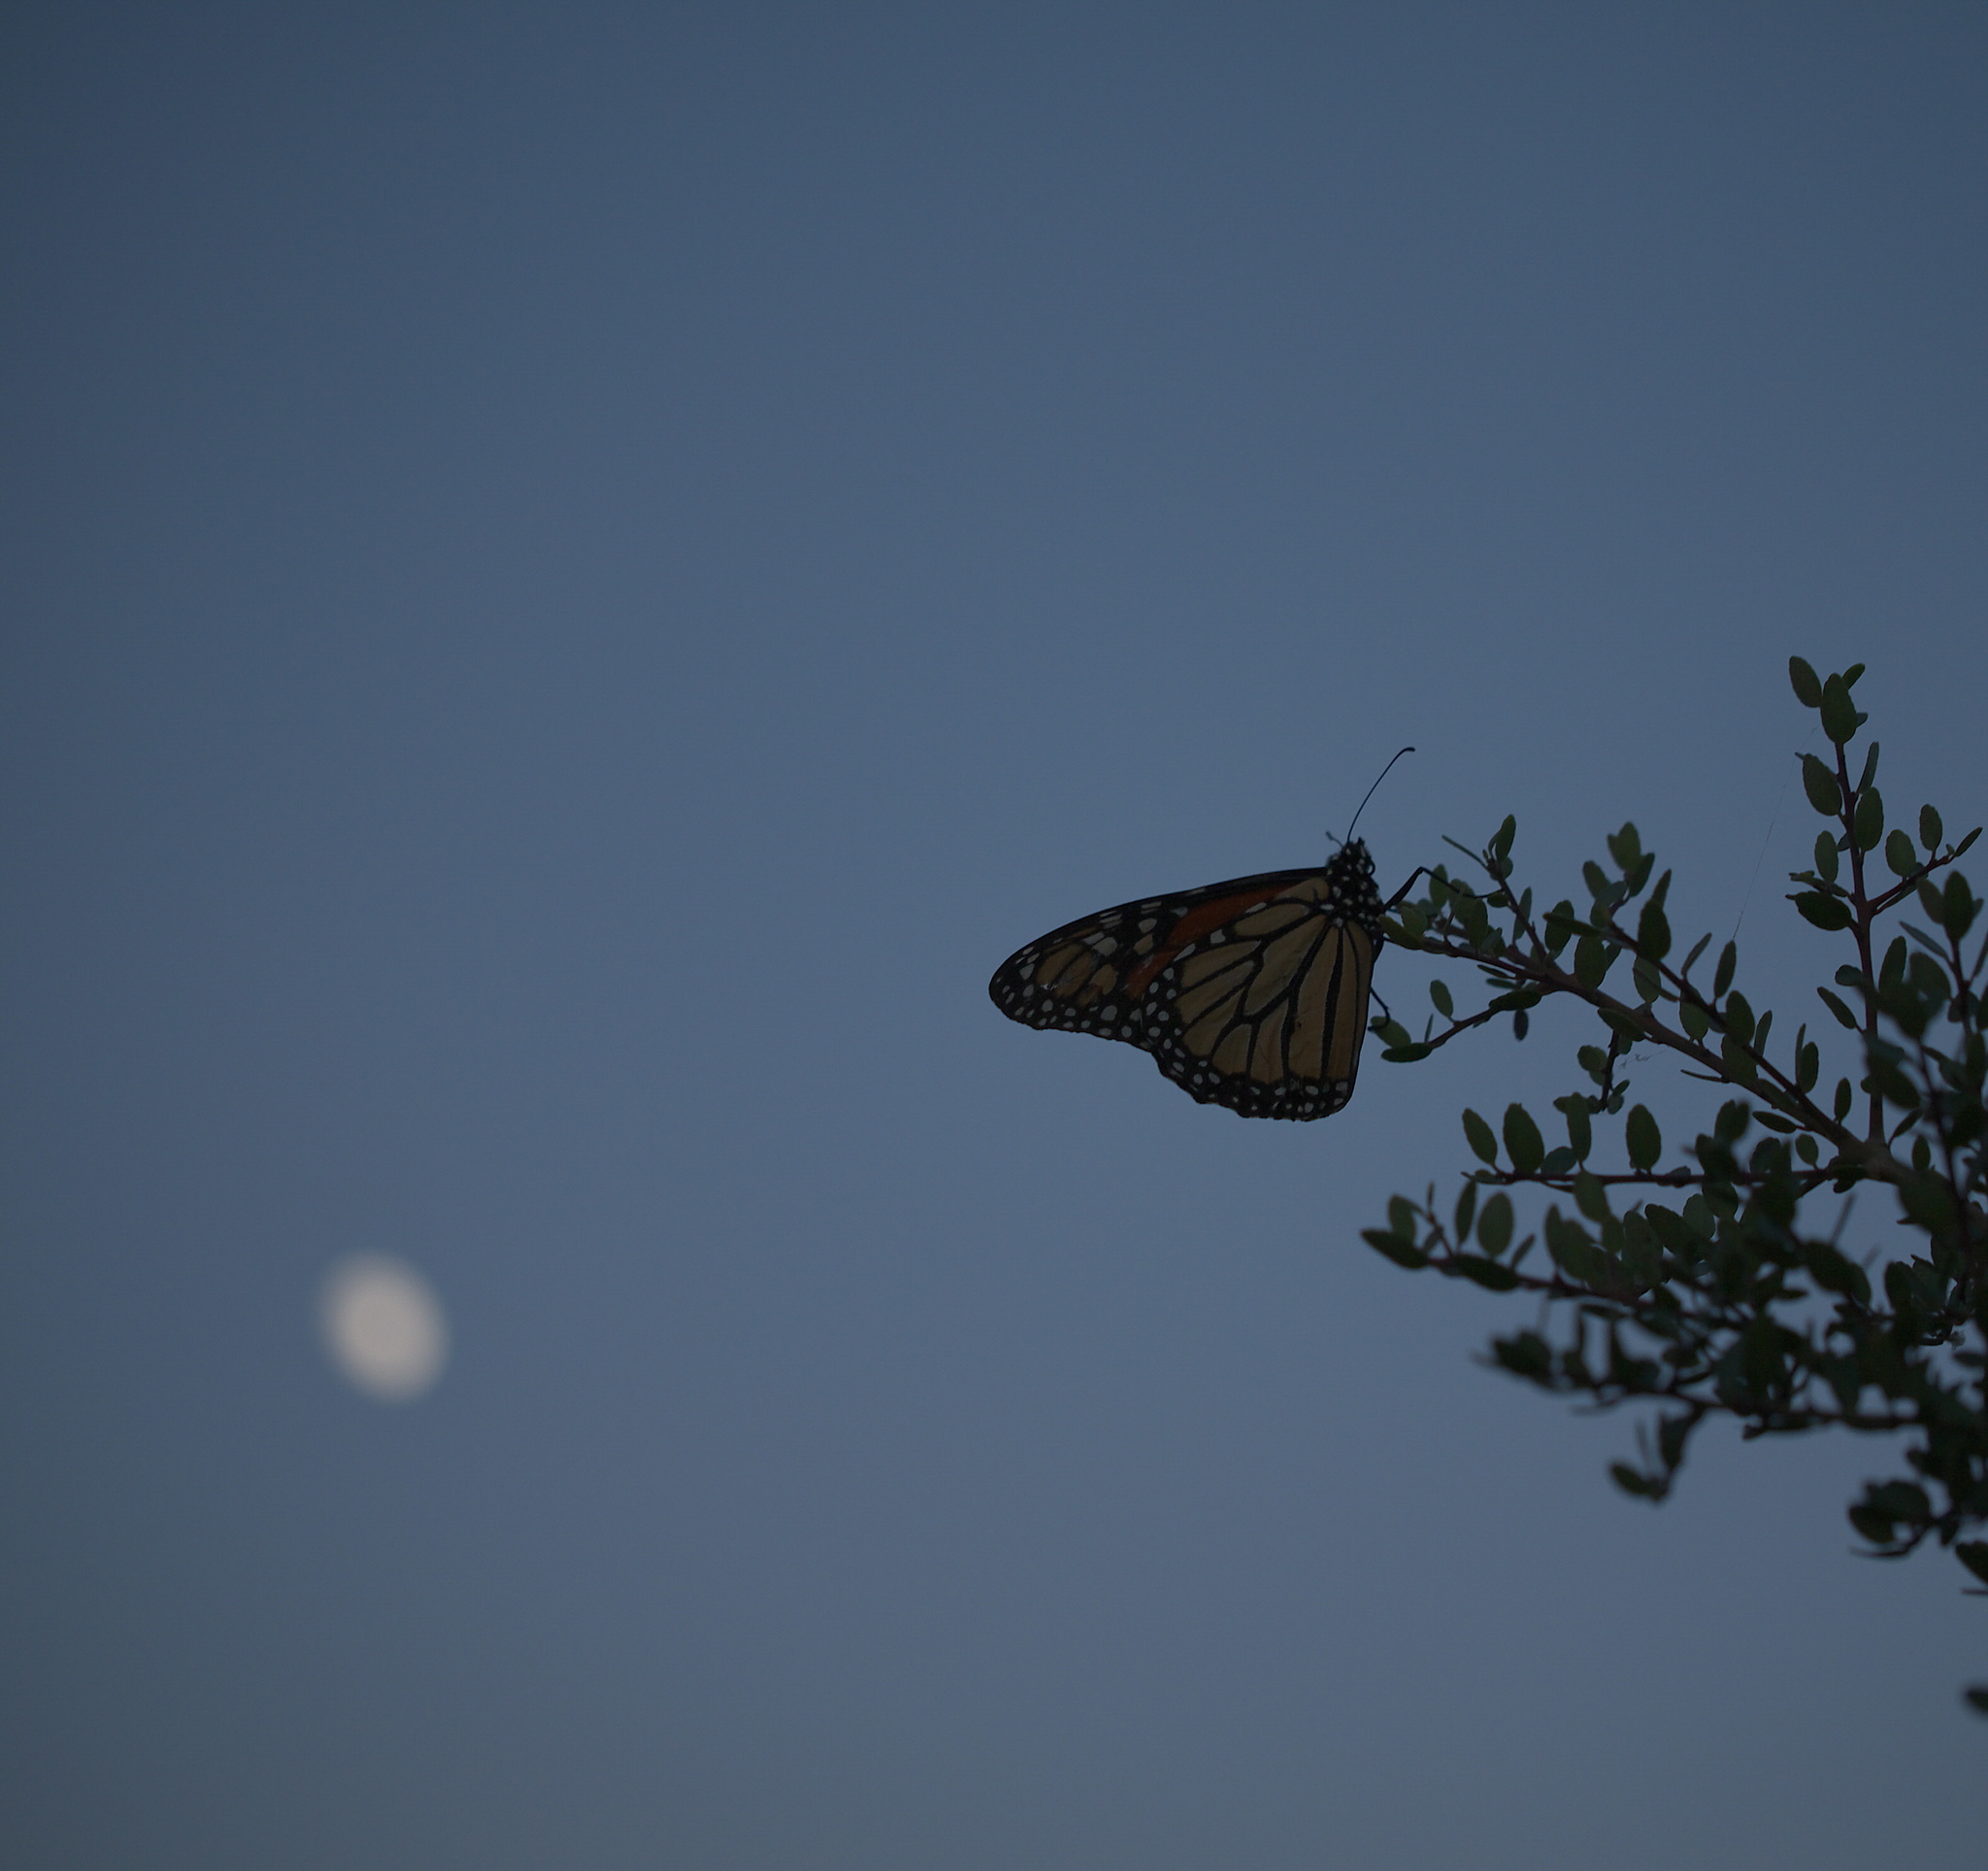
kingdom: Animalia
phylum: Arthropoda
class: Insecta
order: Lepidoptera
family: Nymphalidae
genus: Danaus
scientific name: Danaus plexippus
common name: Monarch
